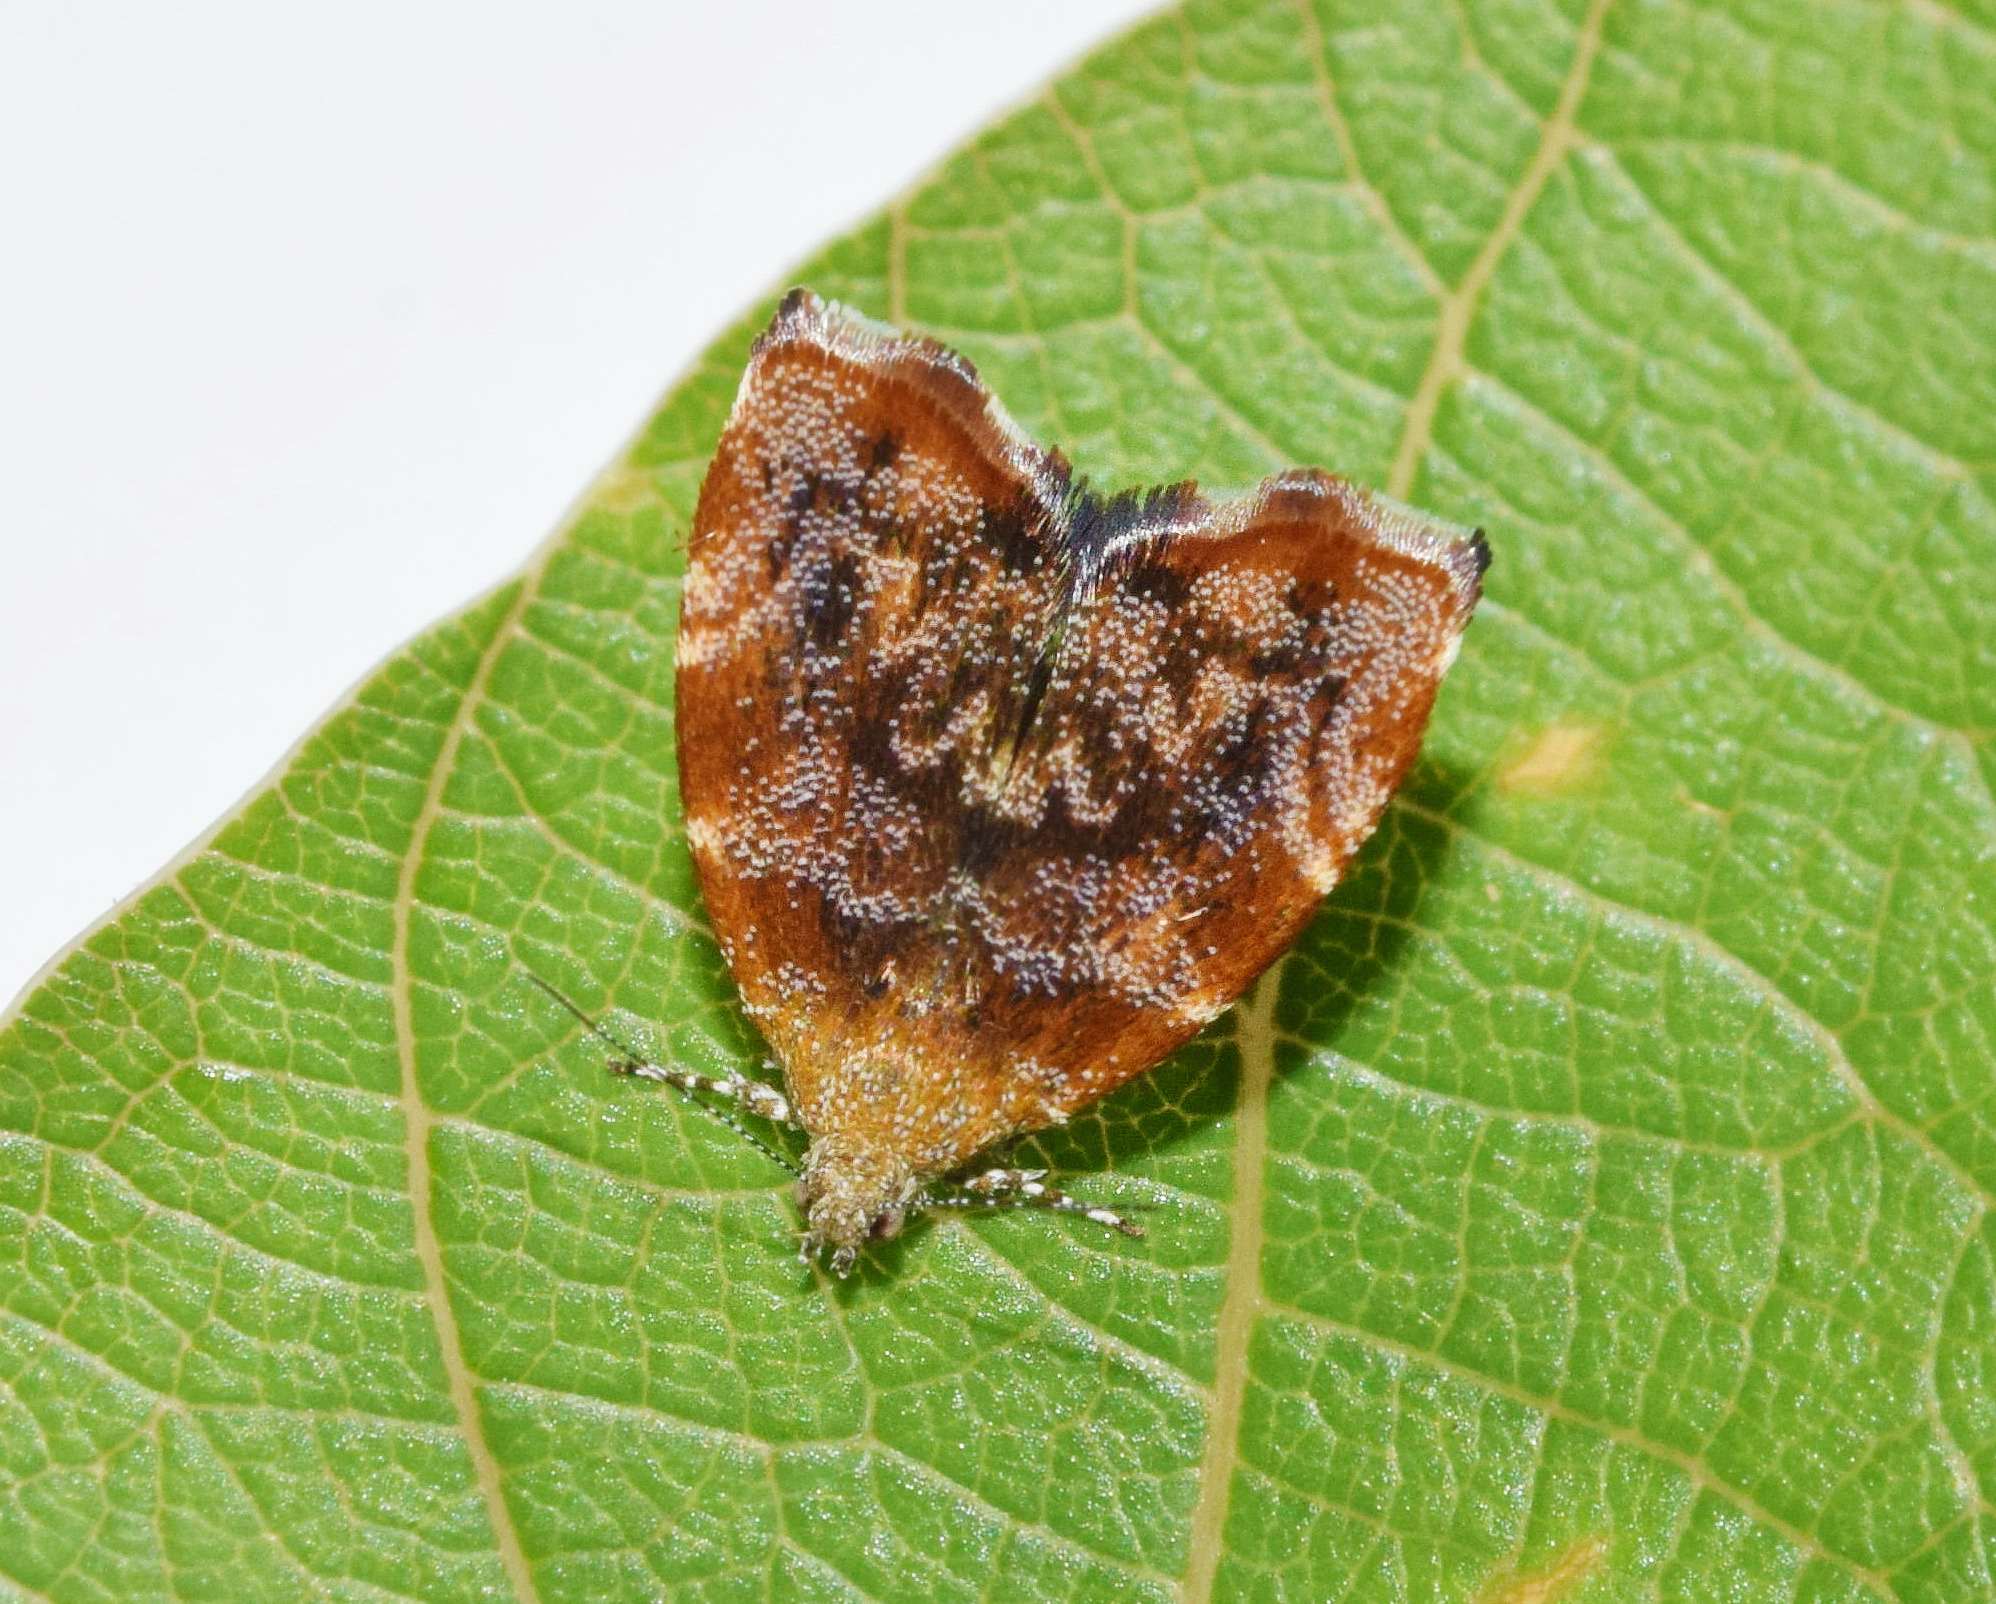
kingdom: Animalia
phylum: Arthropoda
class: Insecta
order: Lepidoptera
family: Choreutidae
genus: Choreutis
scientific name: Choreutis aegyptiaca
